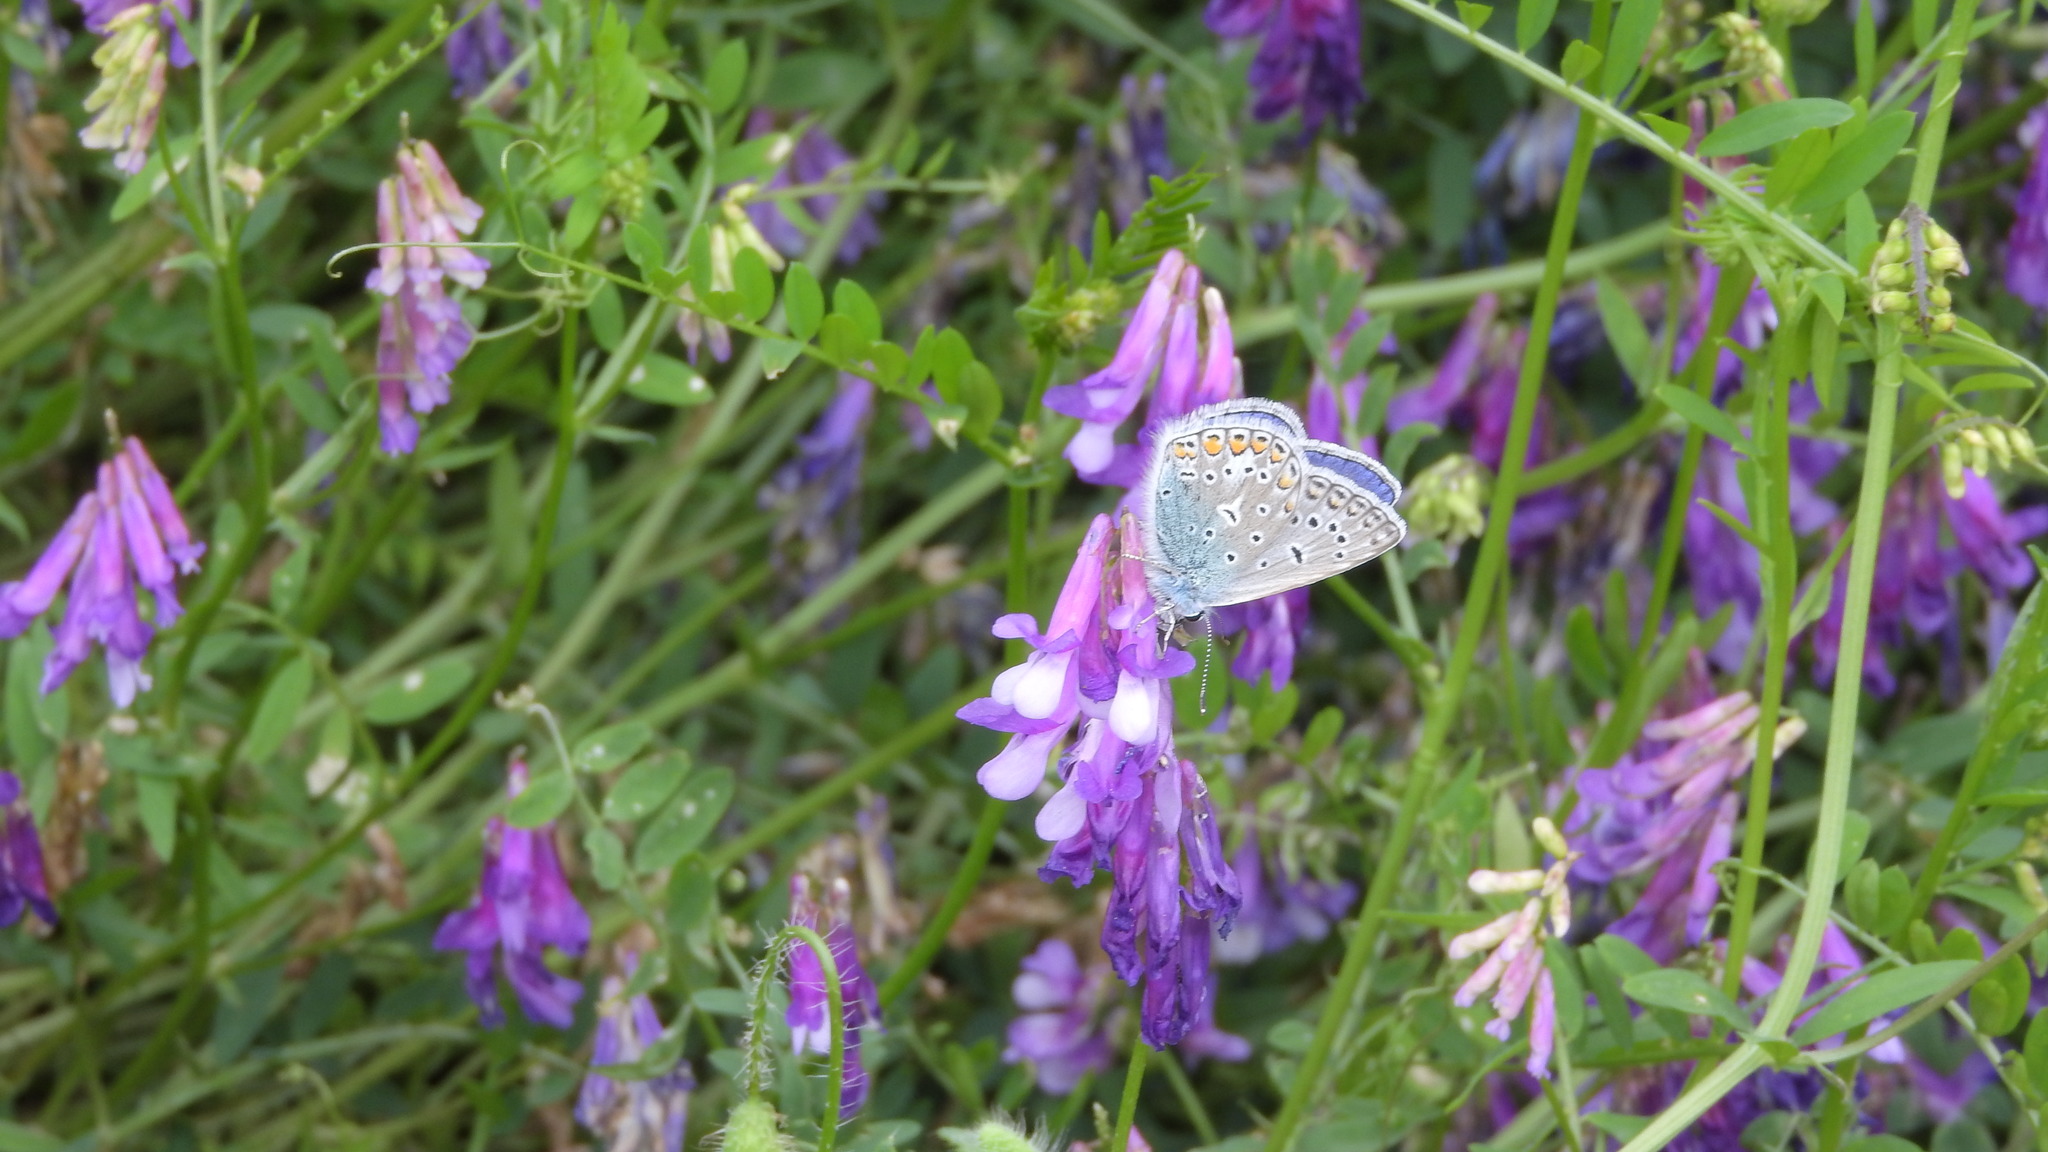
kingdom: Animalia
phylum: Arthropoda
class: Insecta
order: Lepidoptera
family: Lycaenidae
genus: Polyommatus
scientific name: Polyommatus icarus
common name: Common blue
